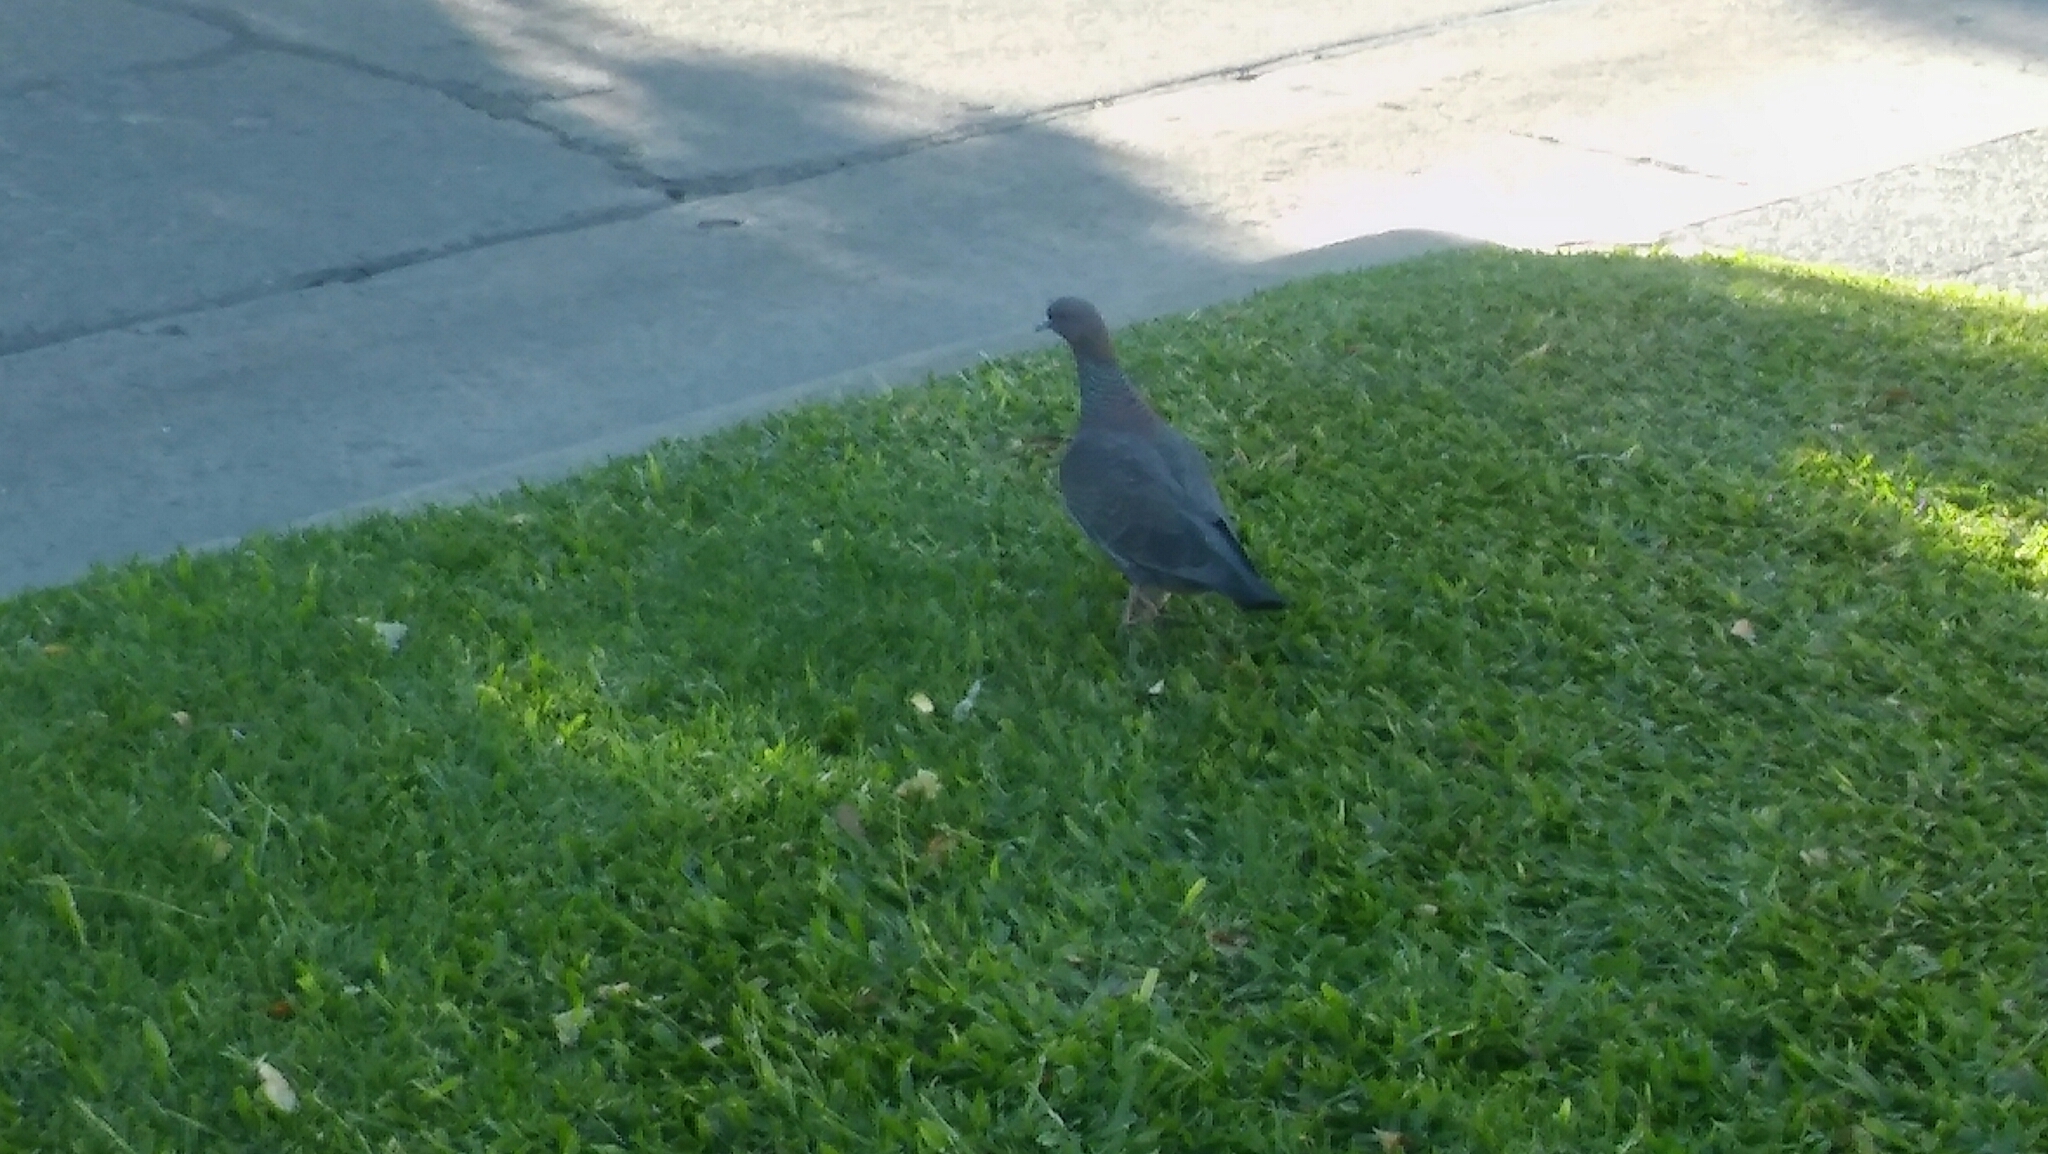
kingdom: Animalia
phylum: Chordata
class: Aves
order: Columbiformes
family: Columbidae
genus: Patagioenas
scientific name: Patagioenas picazuro
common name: Picazuro pigeon
